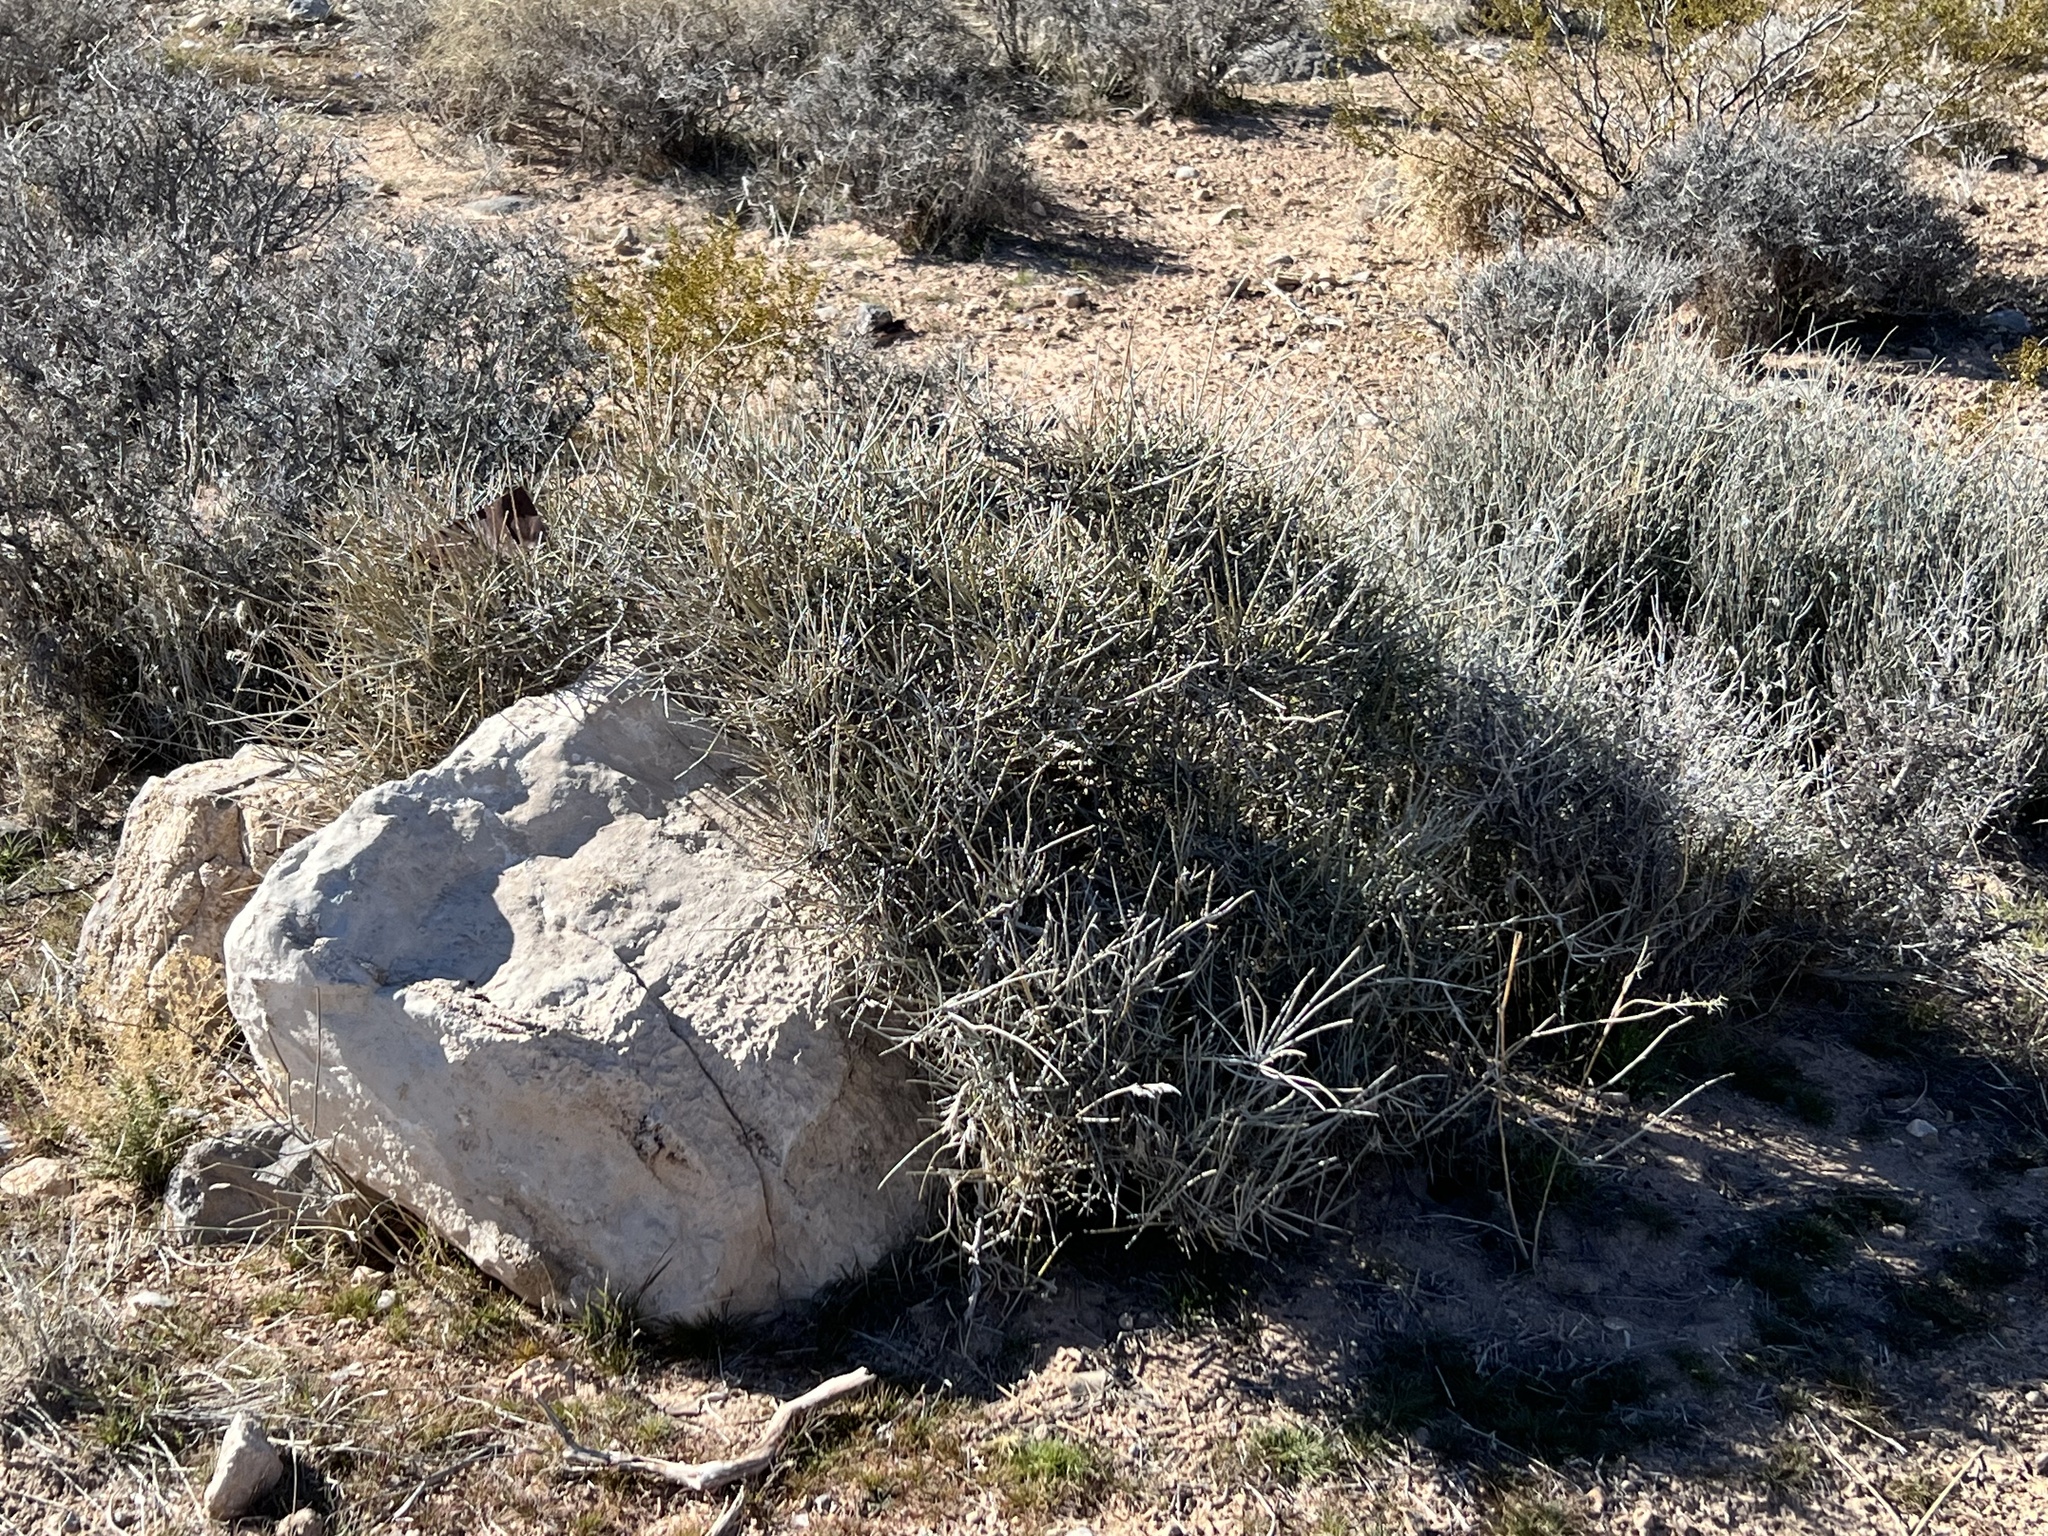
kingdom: Plantae
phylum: Tracheophyta
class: Gnetopsida
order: Ephedrales
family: Ephedraceae
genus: Ephedra
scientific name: Ephedra nevadensis
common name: Gray ephedra
